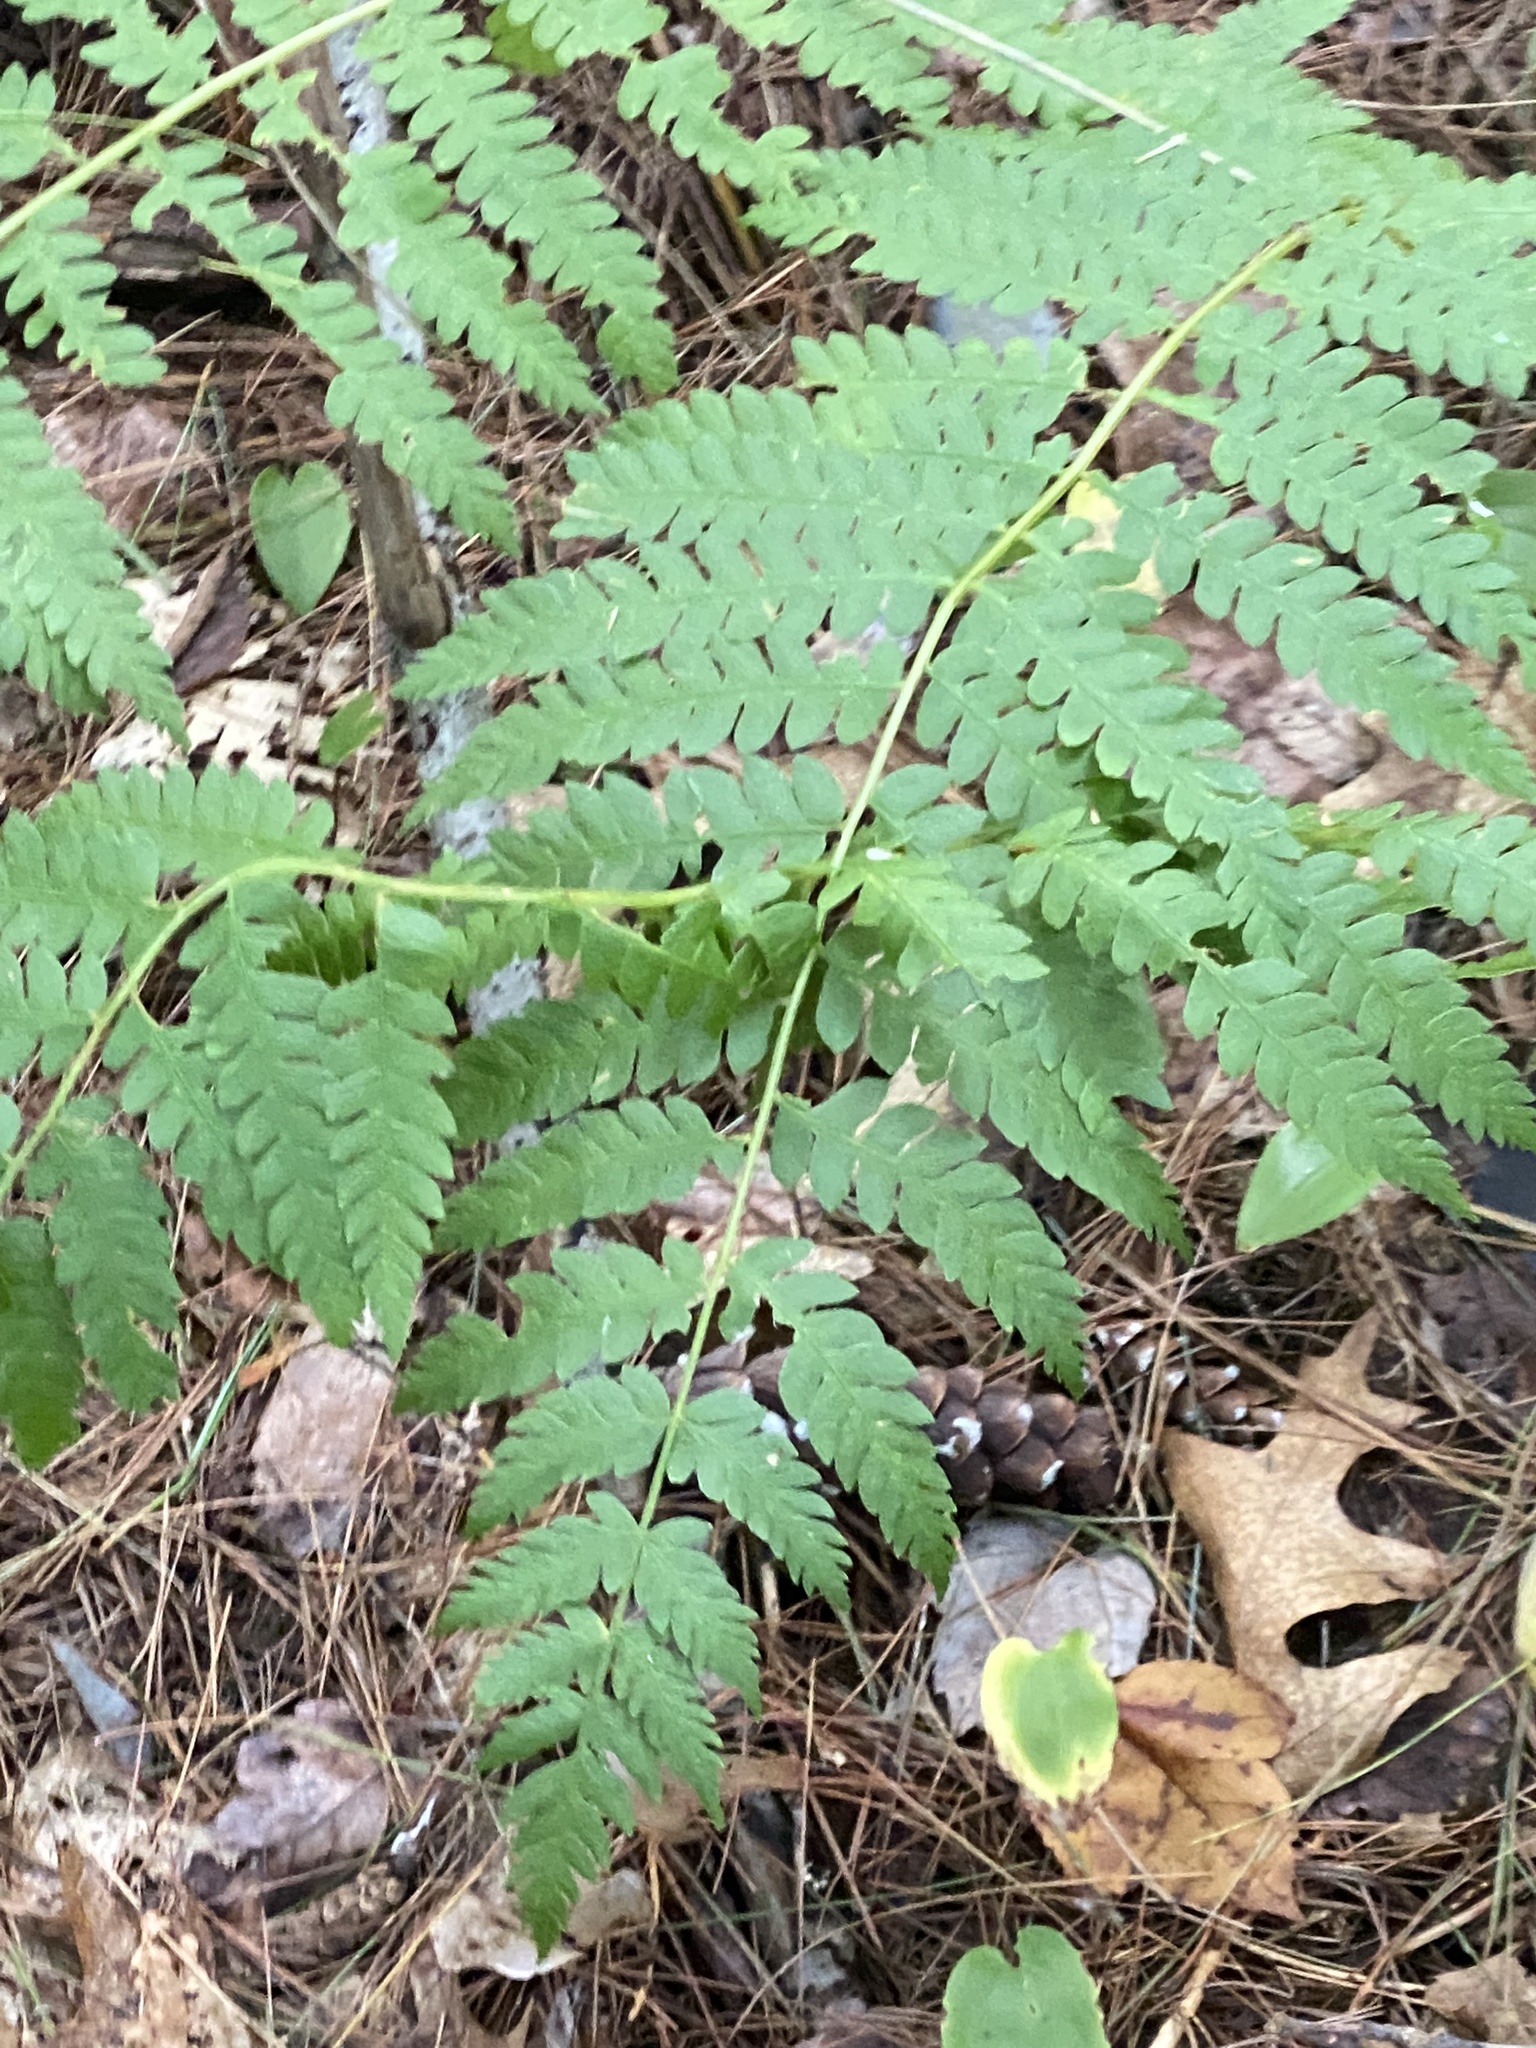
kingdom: Plantae
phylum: Tracheophyta
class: Polypodiopsida
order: Osmundales
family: Osmundaceae
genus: Osmundastrum
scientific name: Osmundastrum cinnamomeum
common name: Cinnamon fern
